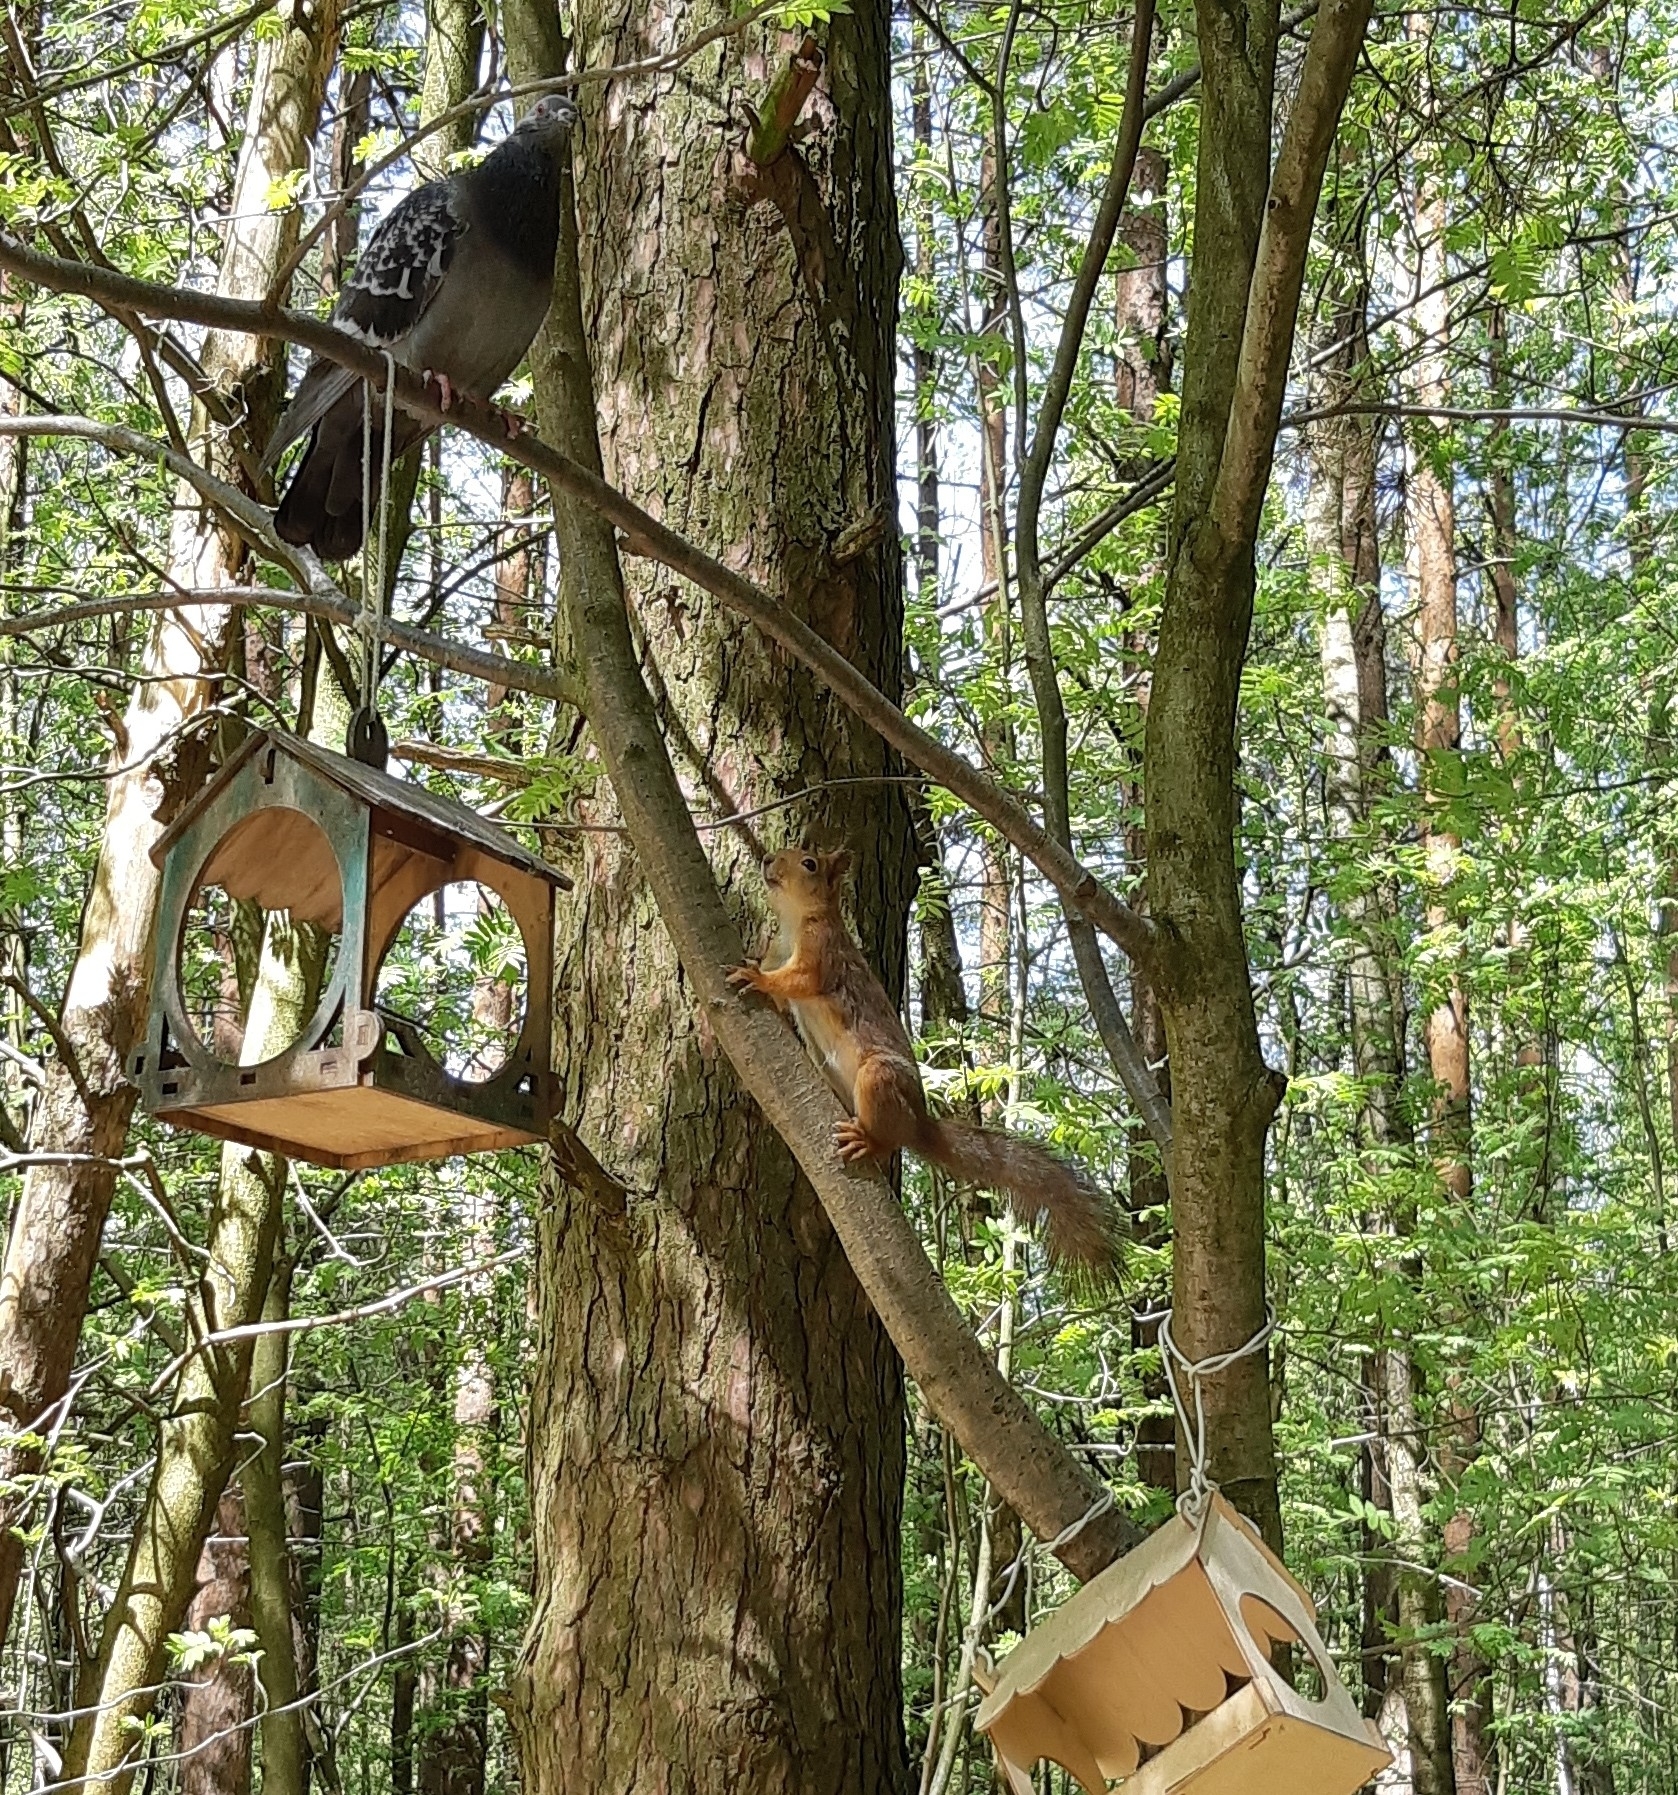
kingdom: Animalia
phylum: Chordata
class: Mammalia
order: Rodentia
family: Sciuridae
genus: Sciurus
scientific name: Sciurus vulgaris
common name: Eurasian red squirrel
